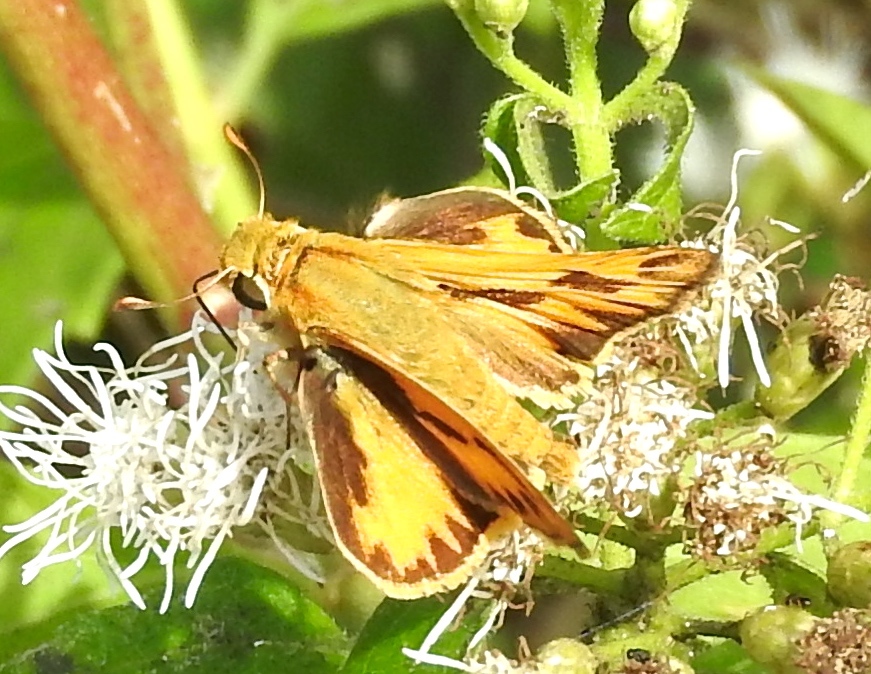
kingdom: Animalia
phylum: Arthropoda
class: Insecta
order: Lepidoptera
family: Hesperiidae
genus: Hylephila
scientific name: Hylephila phyleus
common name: Fiery skipper
